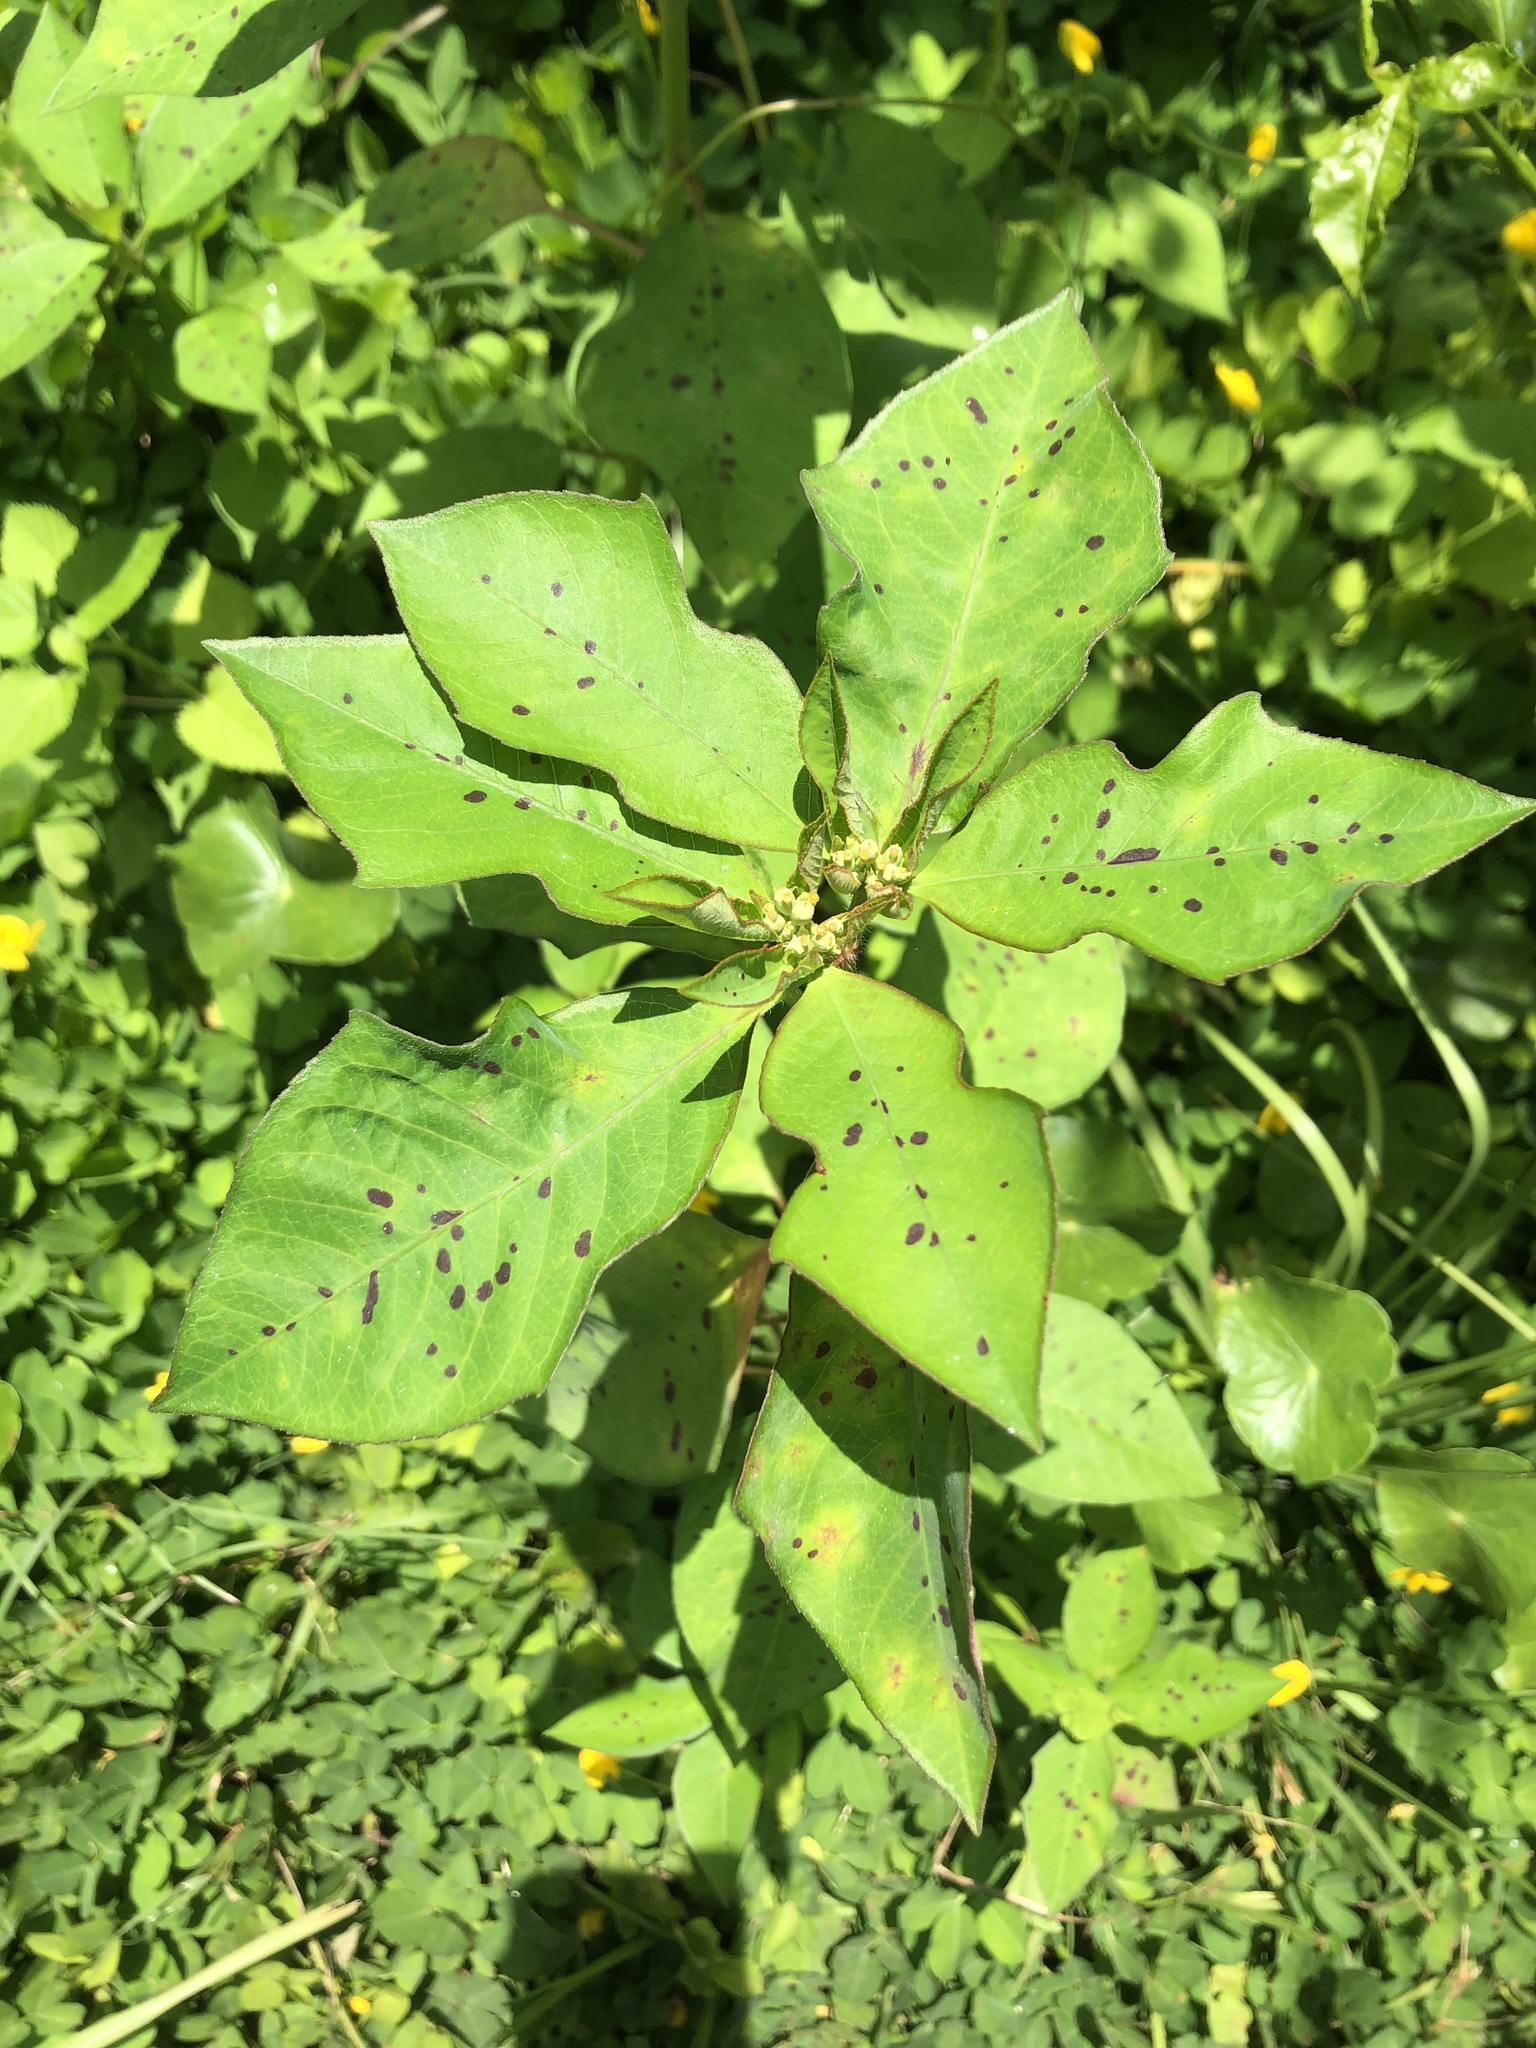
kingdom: Plantae
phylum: Tracheophyta
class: Magnoliopsida
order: Malpighiales
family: Euphorbiaceae
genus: Euphorbia
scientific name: Euphorbia heterophylla
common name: Mexican fireplant
